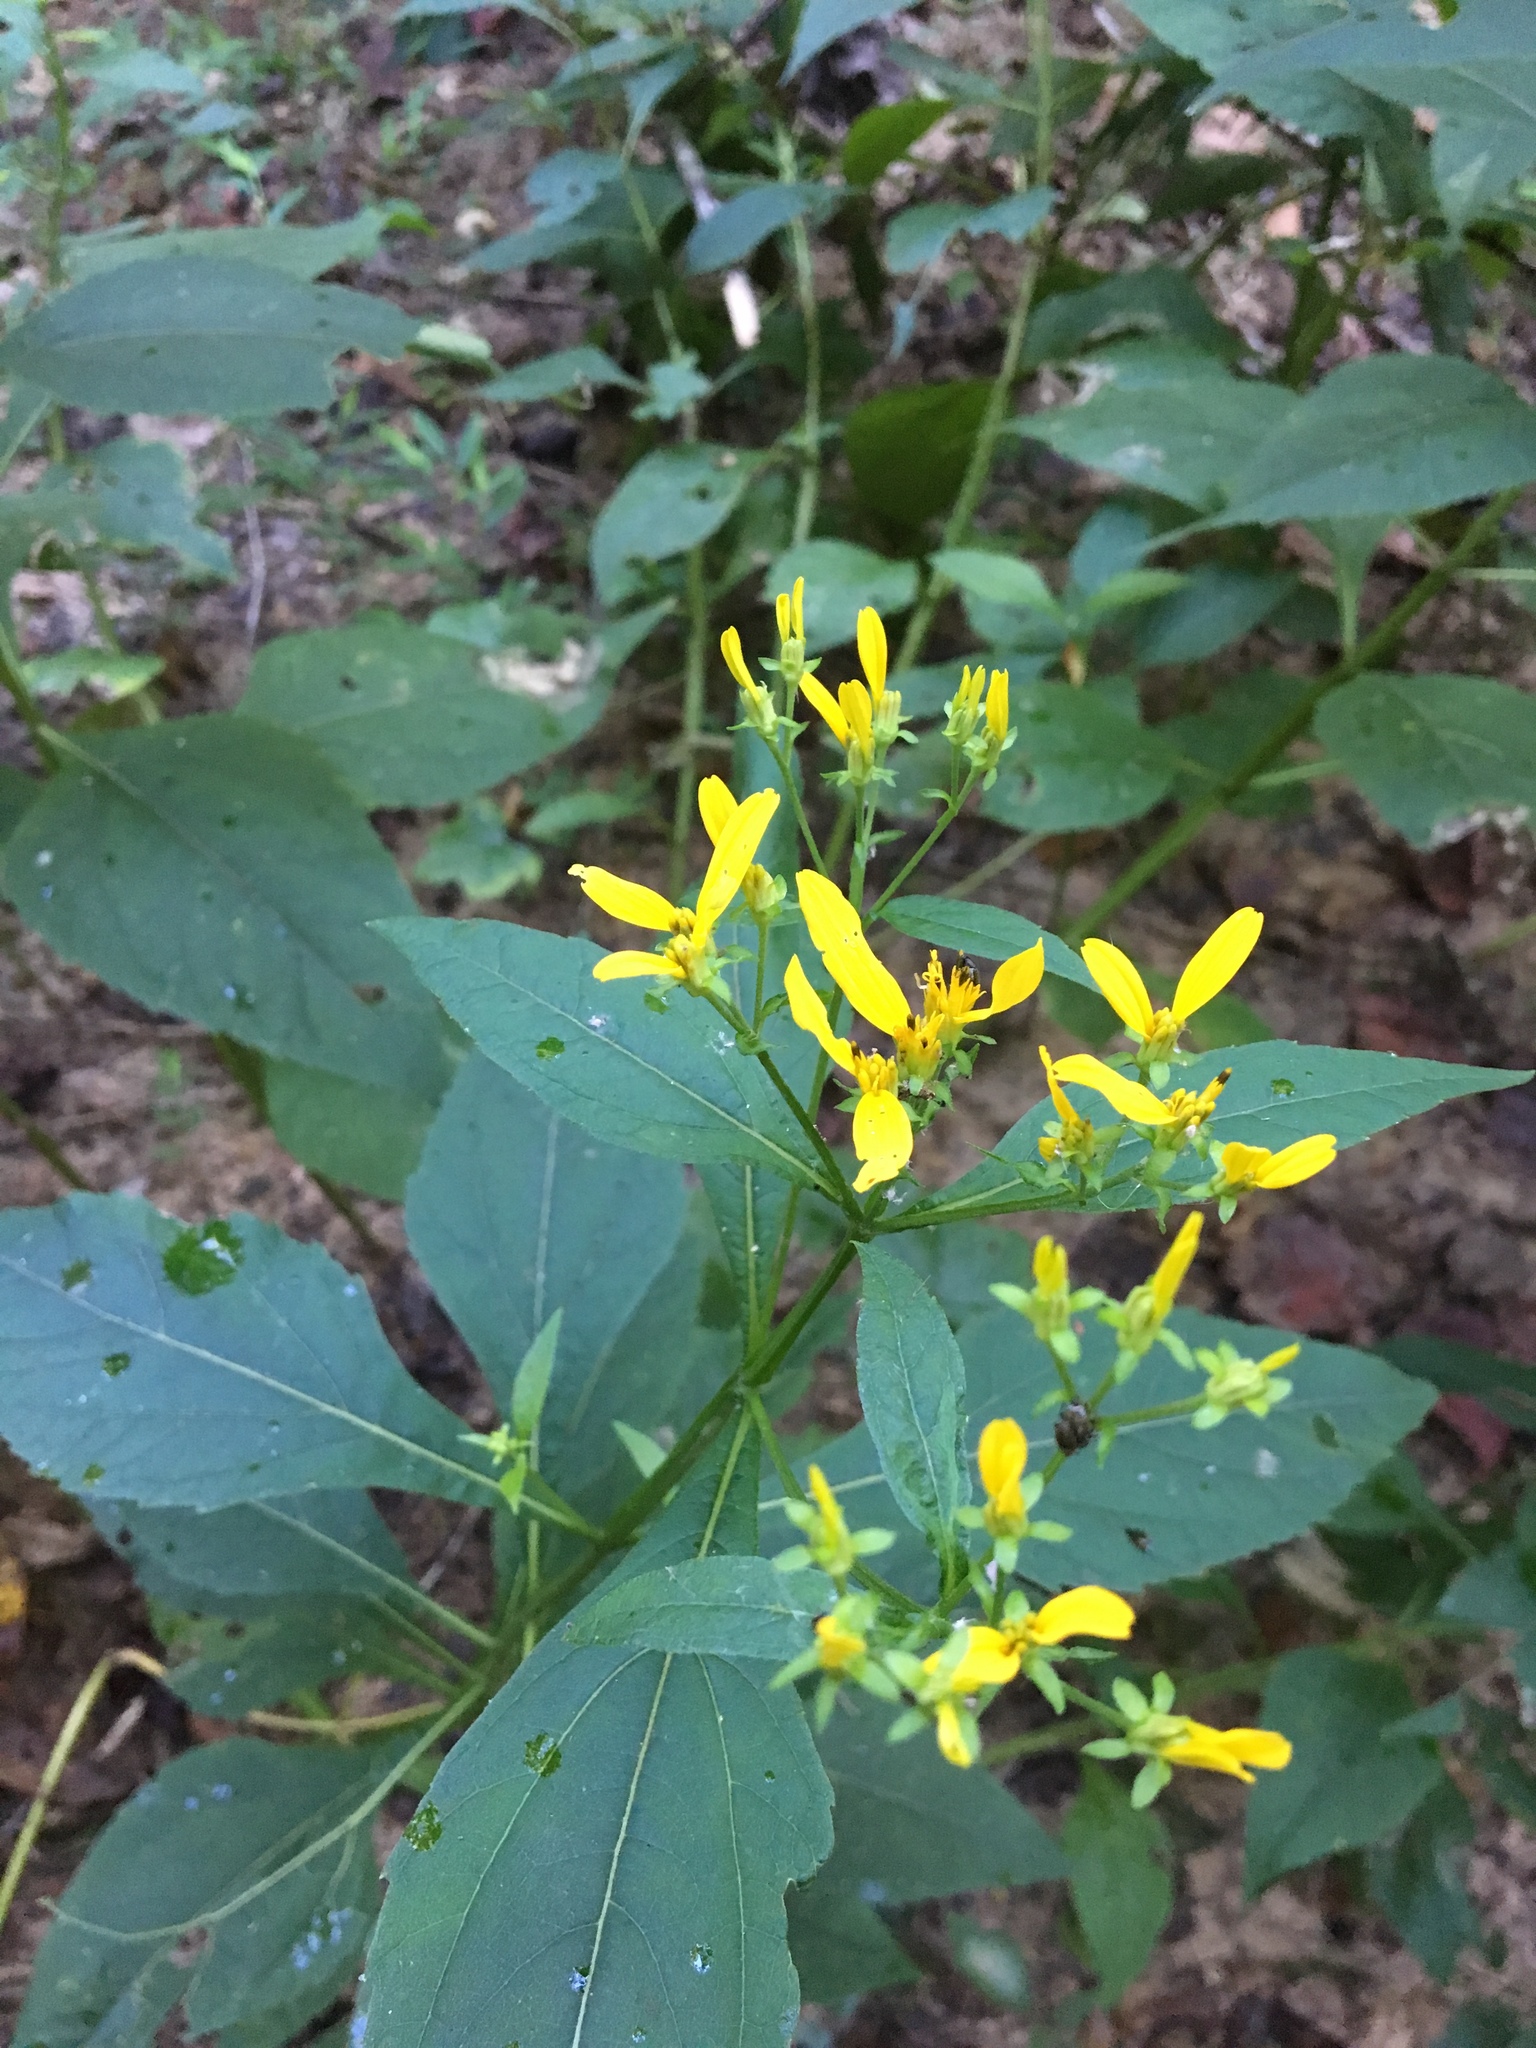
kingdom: Plantae
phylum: Tracheophyta
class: Magnoliopsida
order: Asterales
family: Asteraceae
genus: Verbesina
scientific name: Verbesina occidentalis
